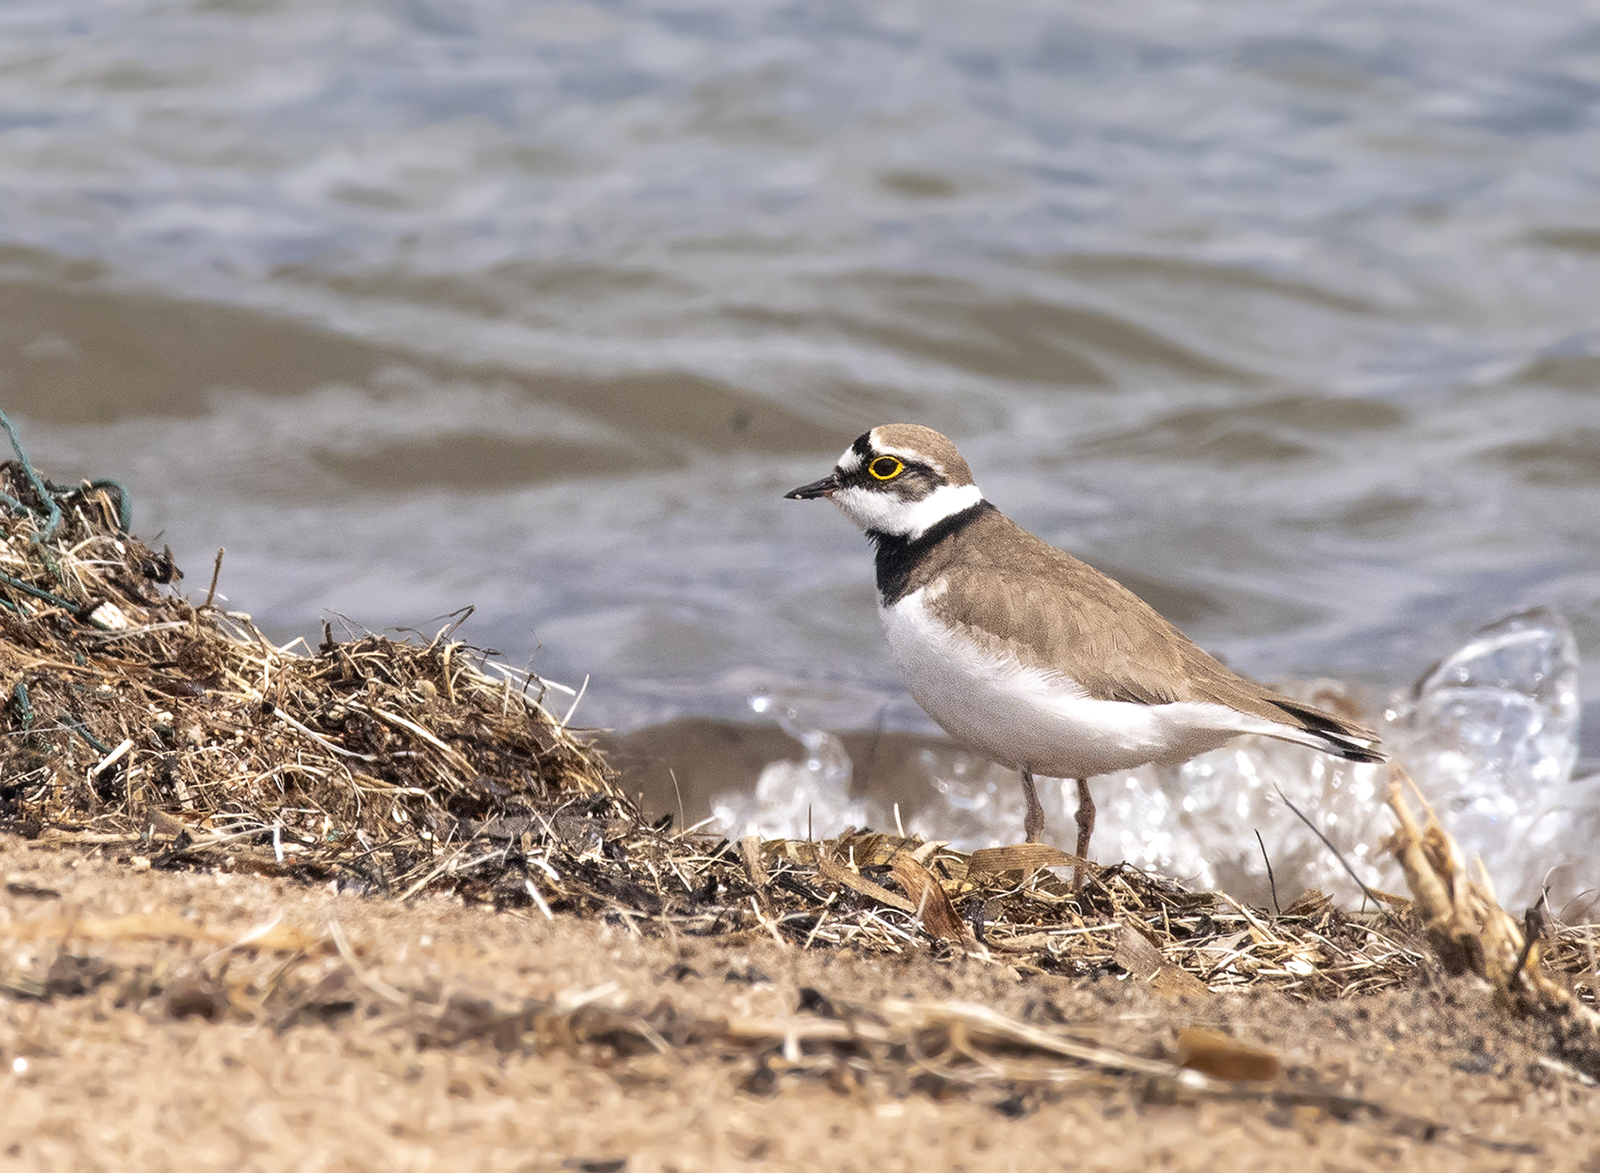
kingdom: Animalia
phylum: Chordata
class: Aves
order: Charadriiformes
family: Charadriidae
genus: Charadrius
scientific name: Charadrius dubius
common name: Little ringed plover
